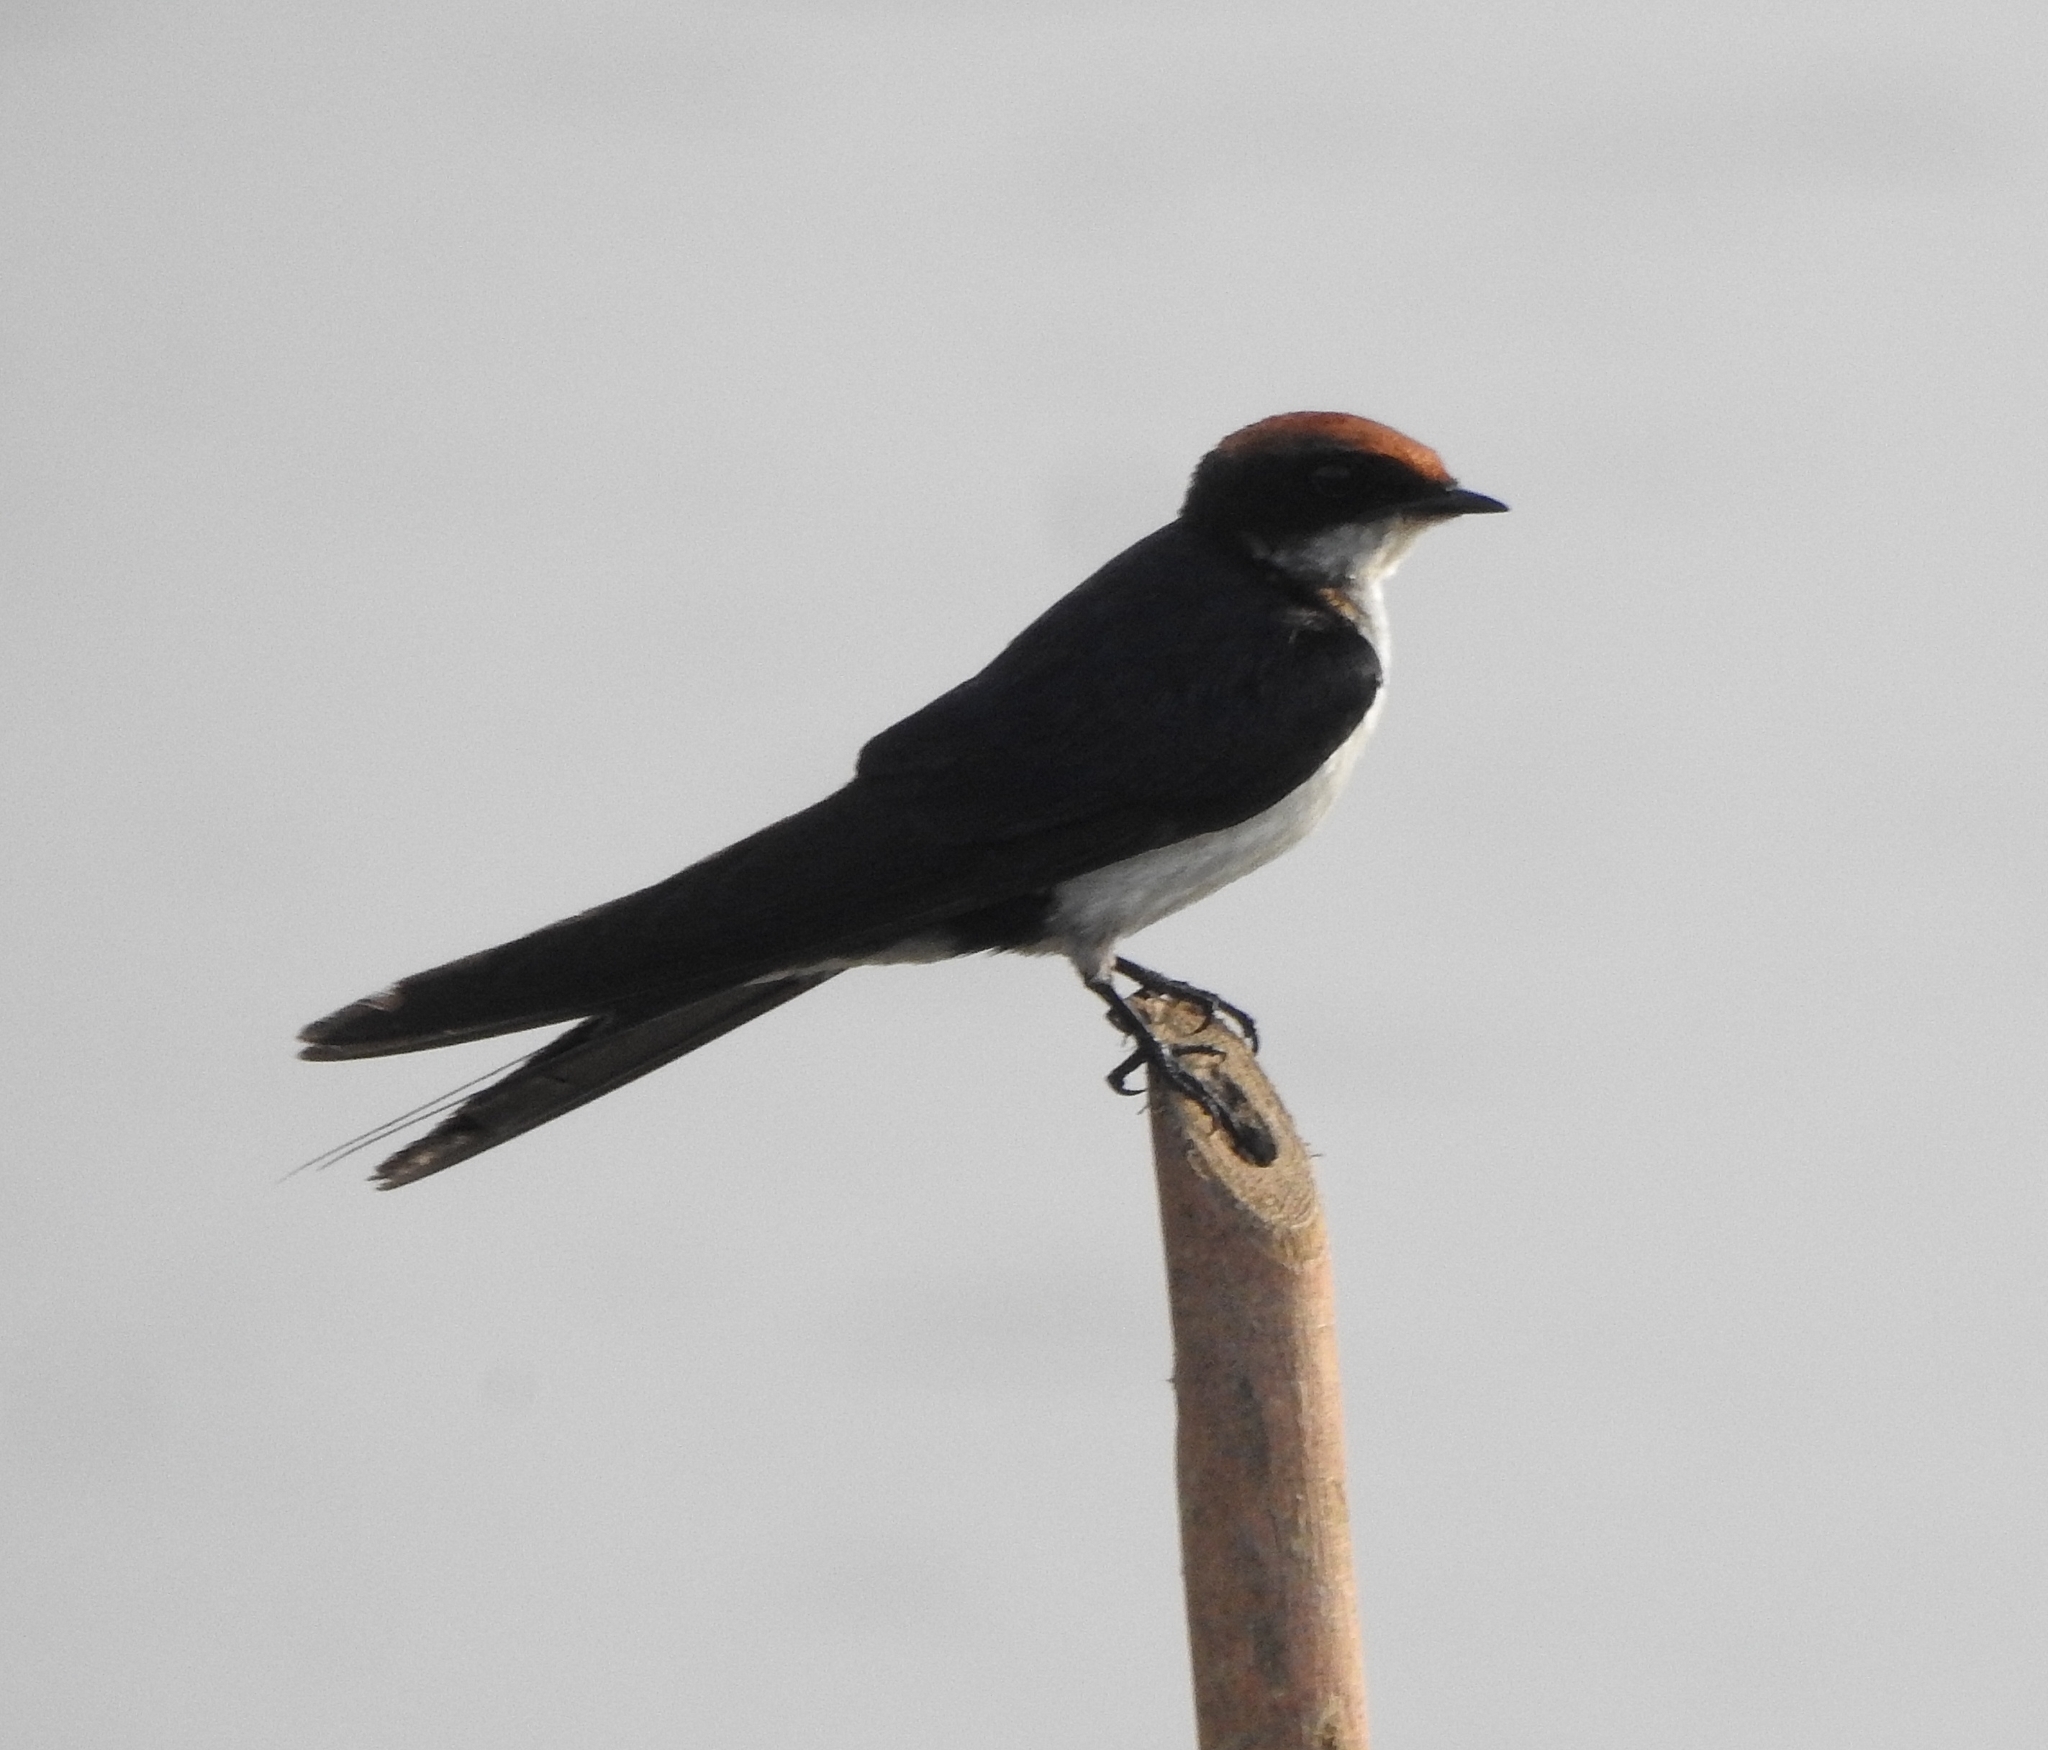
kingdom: Animalia
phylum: Chordata
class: Aves
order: Passeriformes
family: Hirundinidae
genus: Hirundo
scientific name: Hirundo smithii
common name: Wire-tailed swallow
